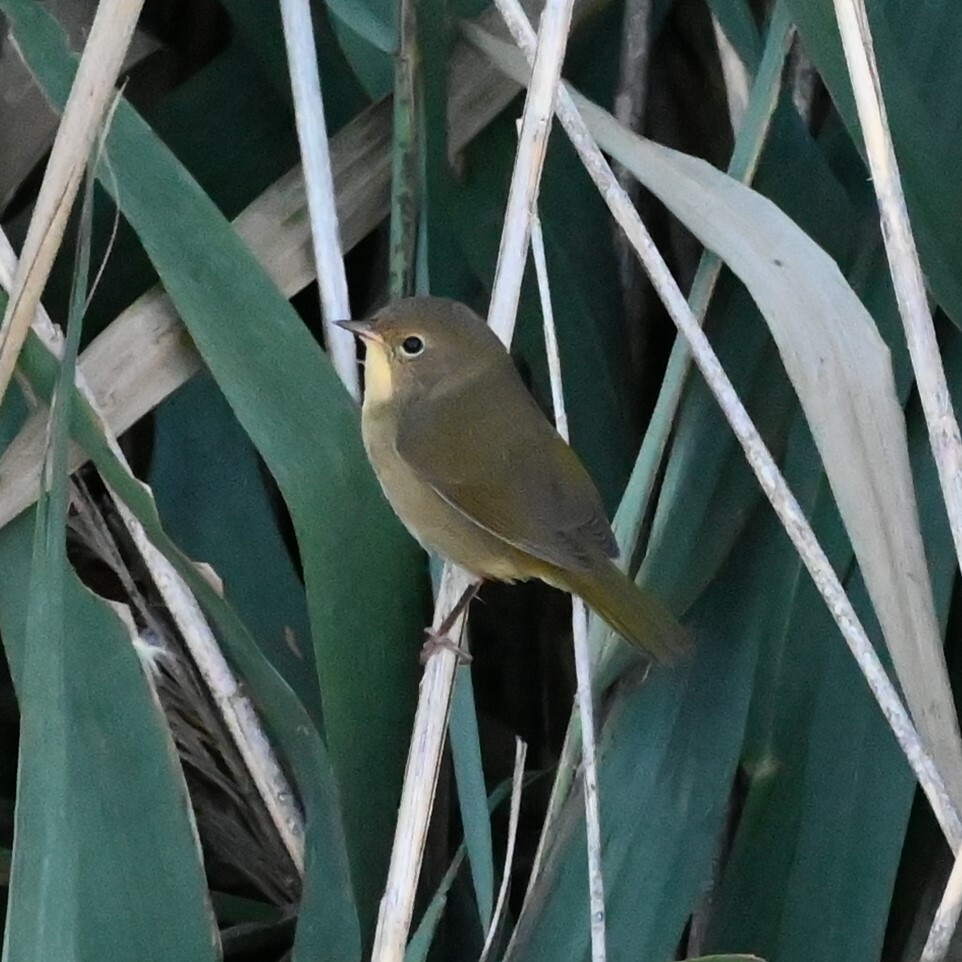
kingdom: Animalia
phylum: Chordata
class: Aves
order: Passeriformes
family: Parulidae
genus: Geothlypis
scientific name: Geothlypis trichas
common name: Common yellowthroat
